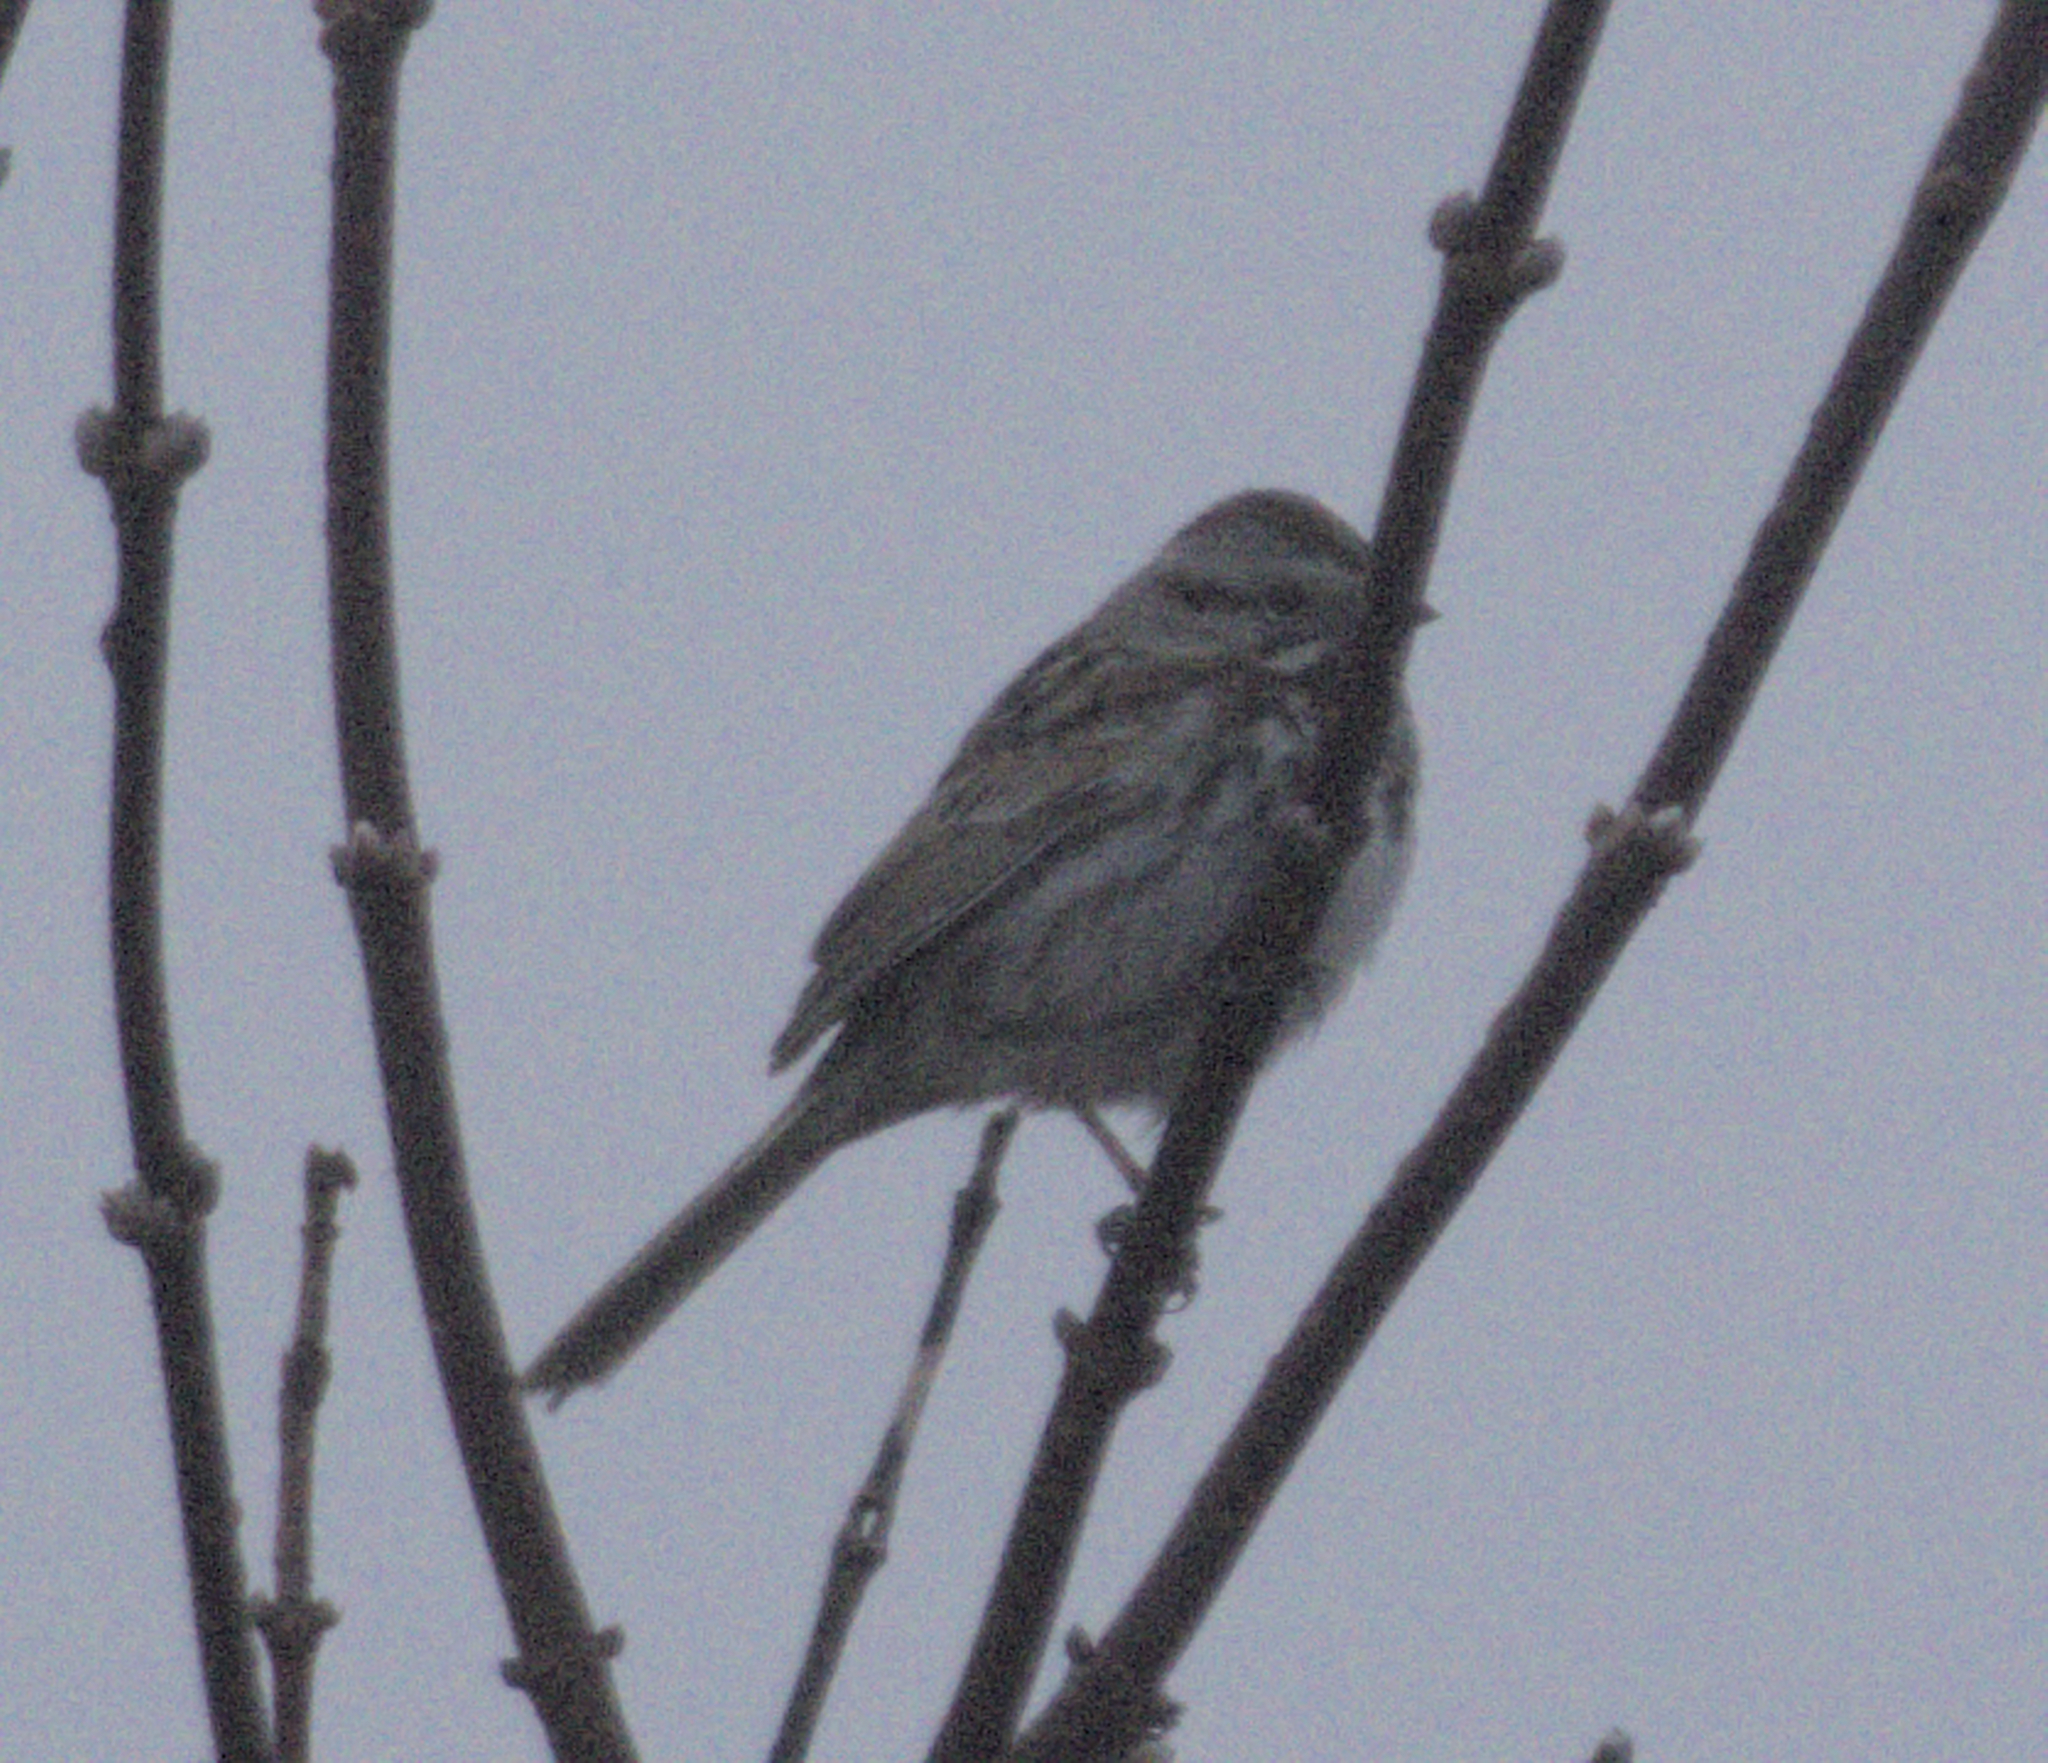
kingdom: Animalia
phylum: Chordata
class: Aves
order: Passeriformes
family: Passerellidae
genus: Melospiza
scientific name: Melospiza melodia
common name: Song sparrow
